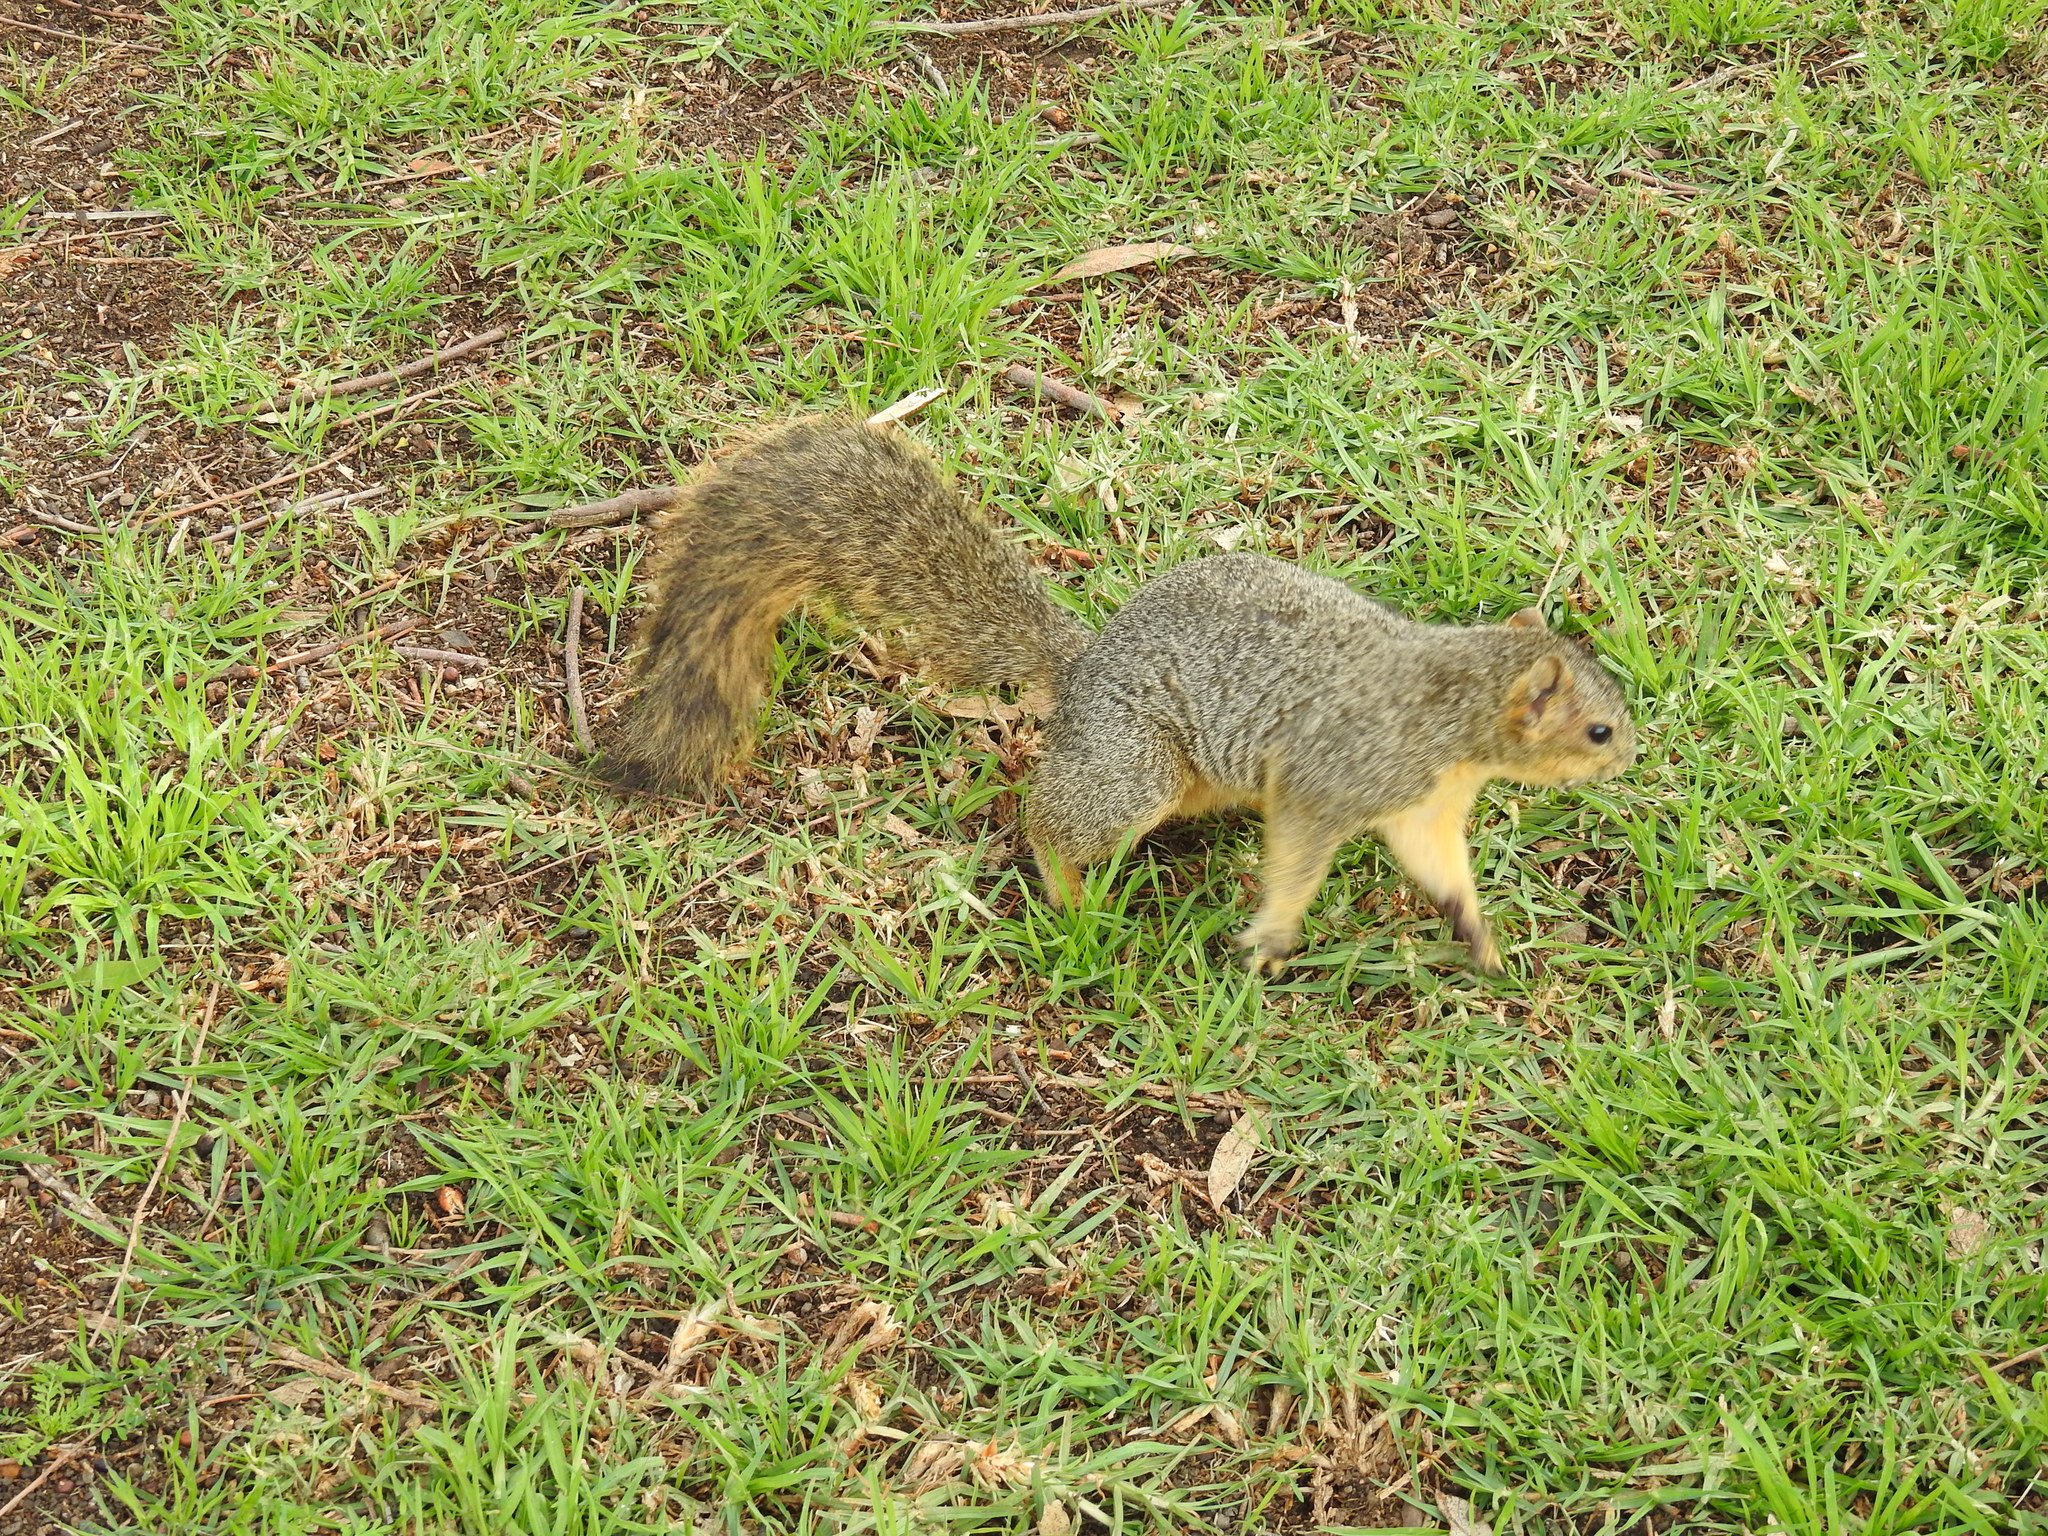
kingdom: Animalia
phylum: Chordata
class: Mammalia
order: Rodentia
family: Sciuridae
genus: Sciurus
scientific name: Sciurus niger
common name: Fox squirrel
